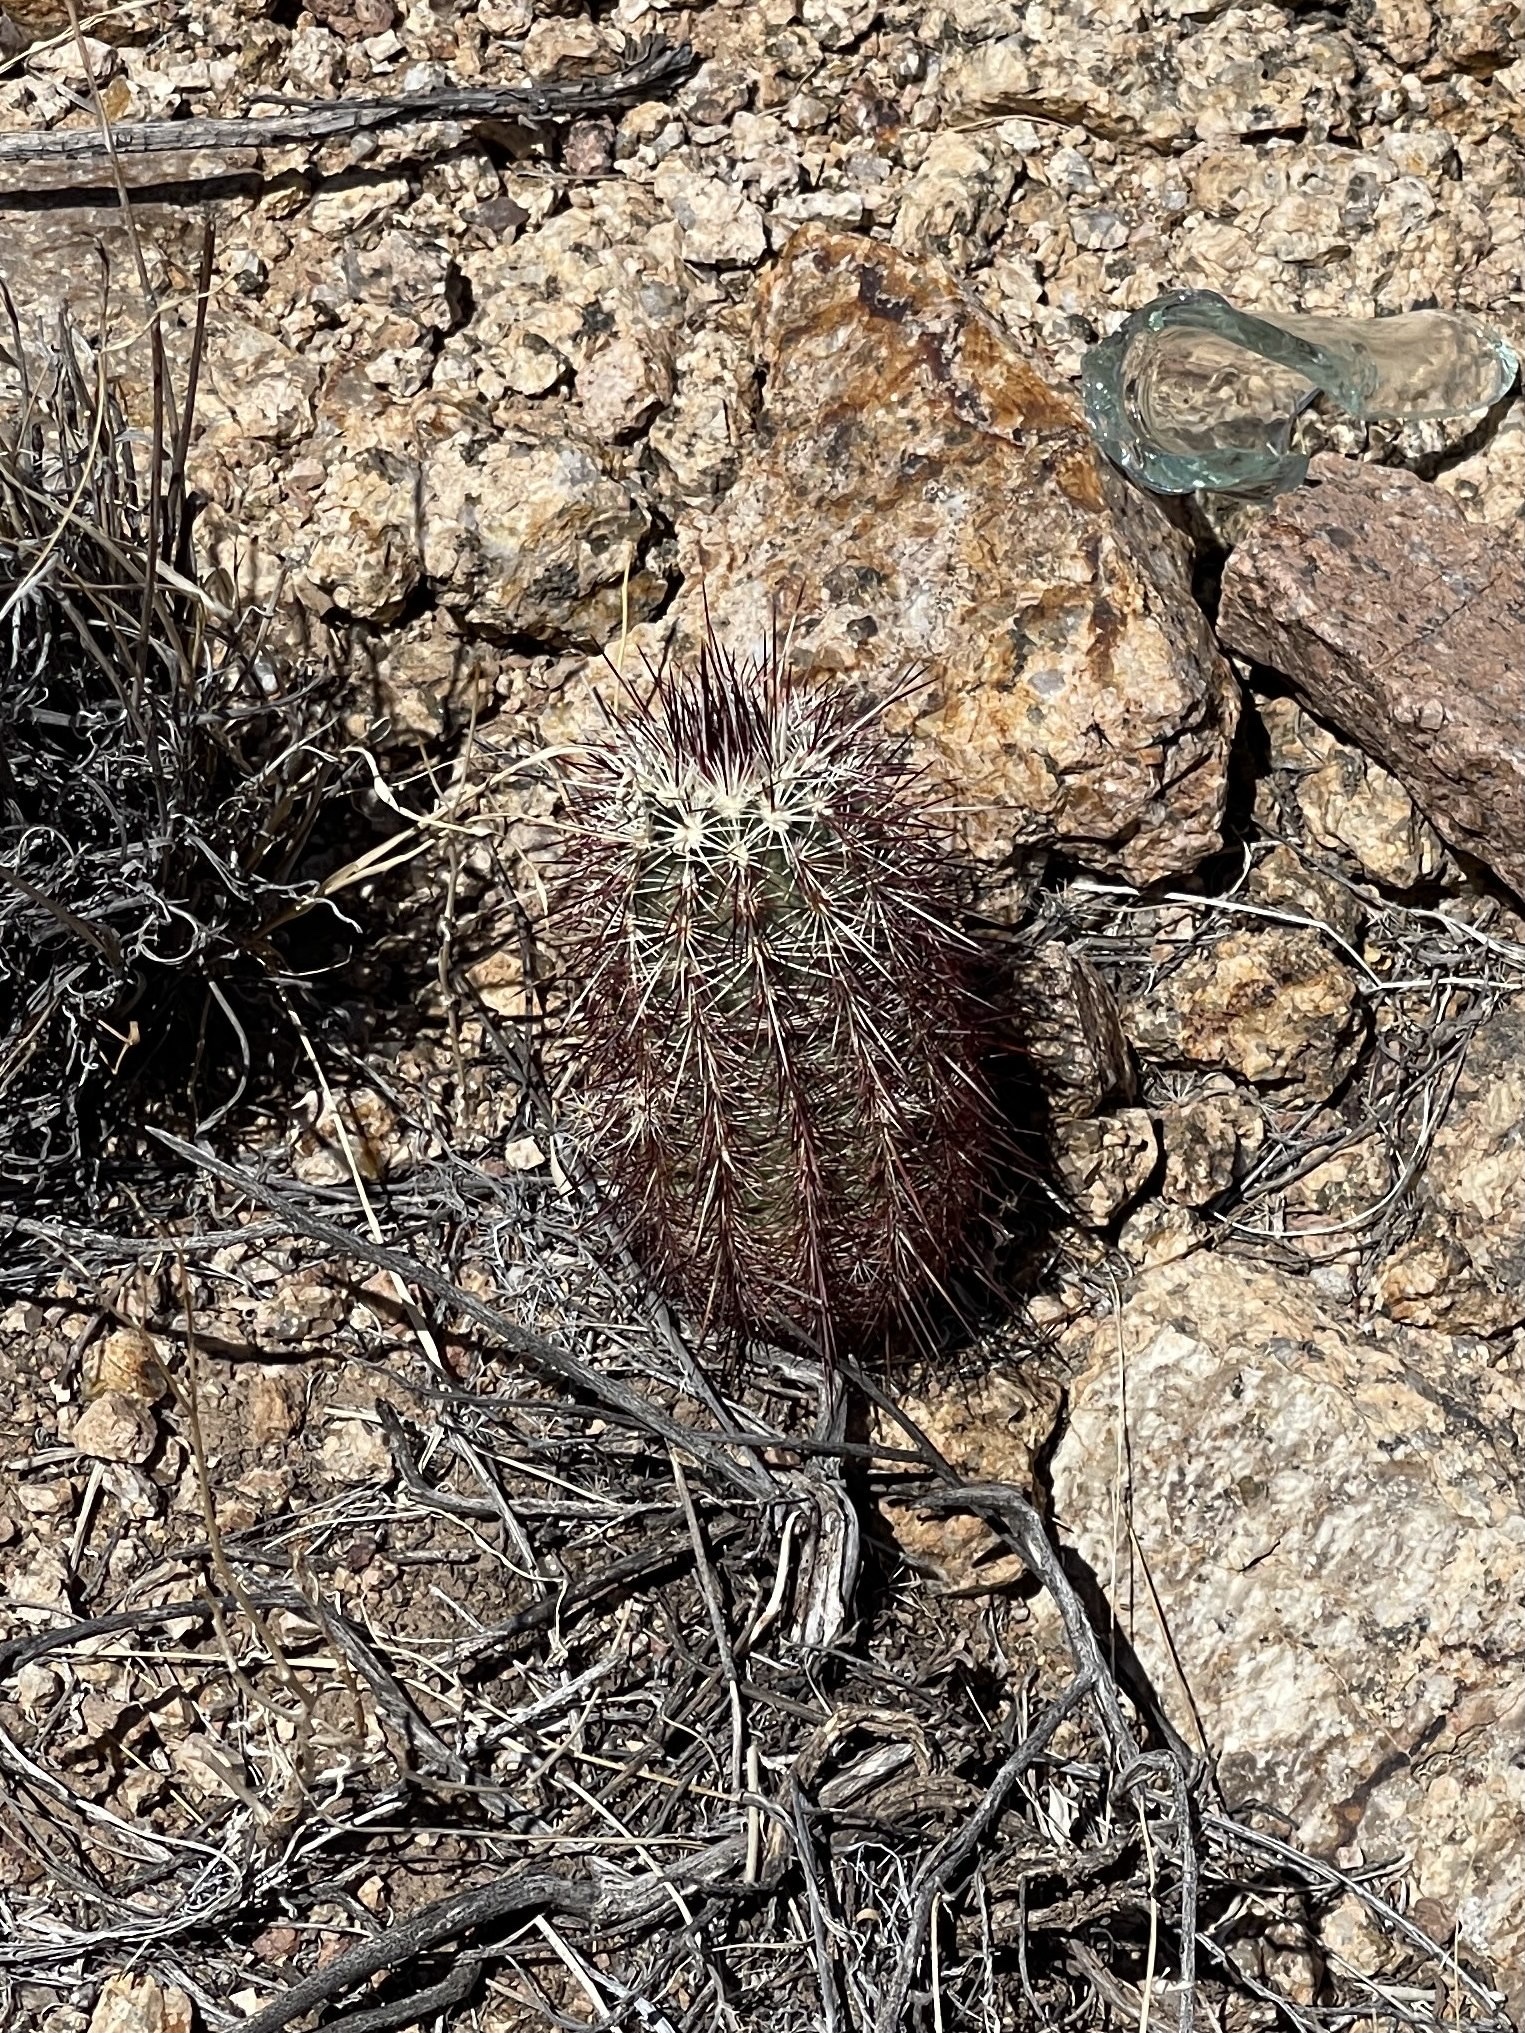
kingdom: Plantae
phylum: Tracheophyta
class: Magnoliopsida
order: Caryophyllales
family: Cactaceae
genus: Echinocereus
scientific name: Echinocereus viridiflorus
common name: Nylon hedgehog cactus
